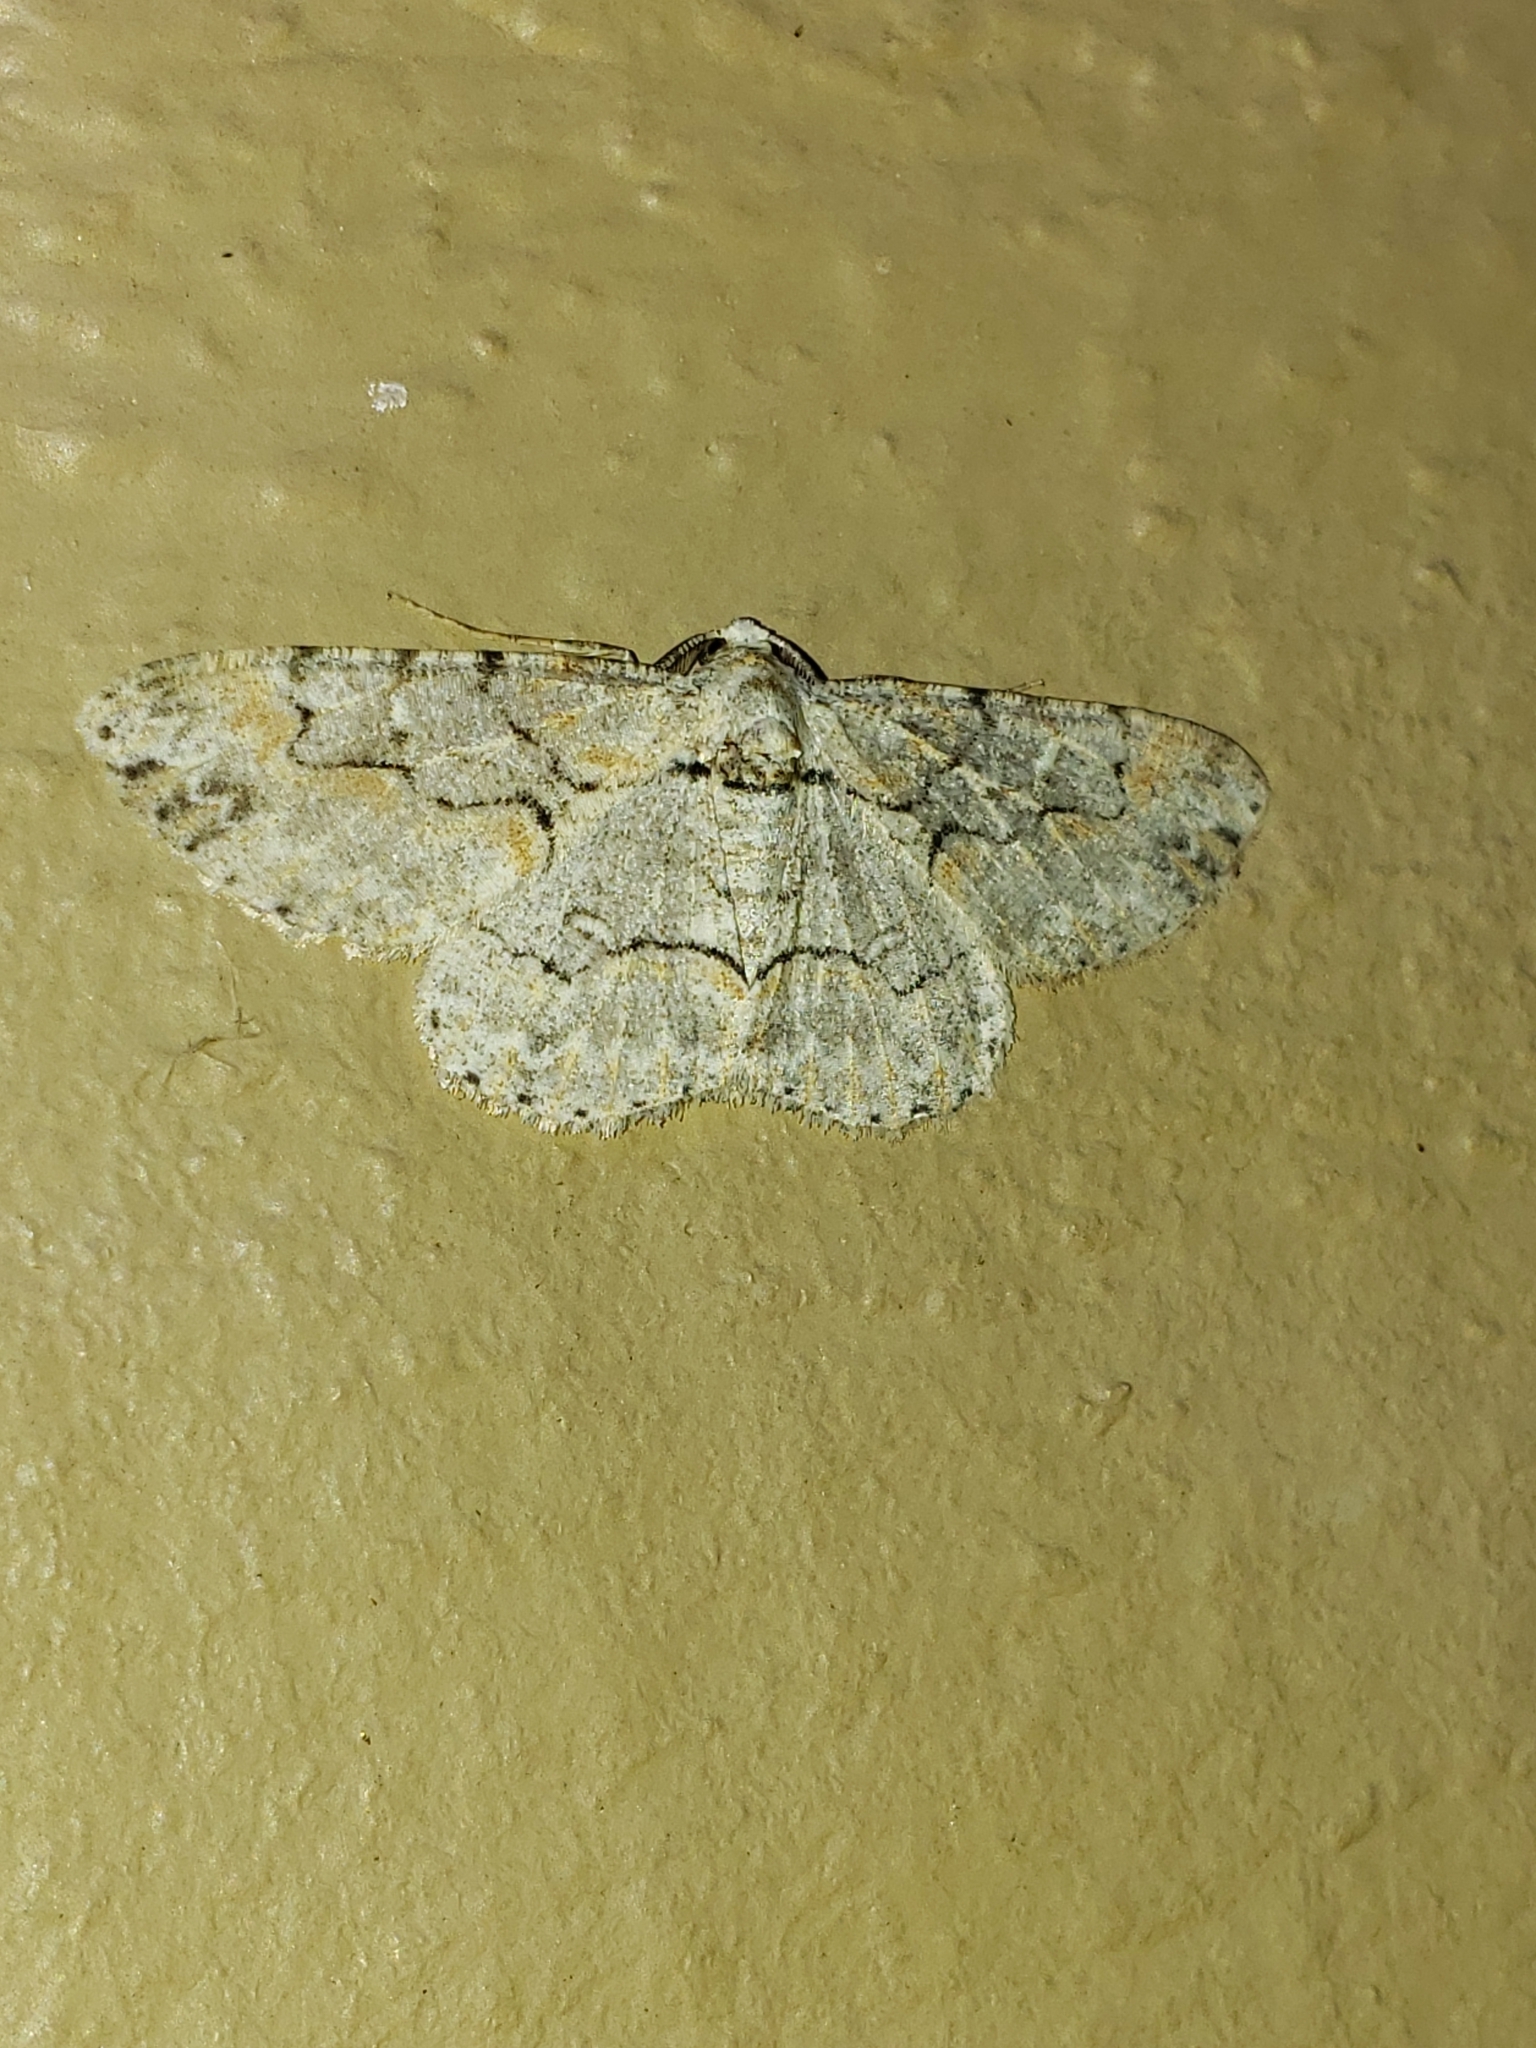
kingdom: Animalia
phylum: Arthropoda
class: Insecta
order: Lepidoptera
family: Geometridae
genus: Iridopsis
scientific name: Iridopsis defectaria
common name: Brown-shaded gray
